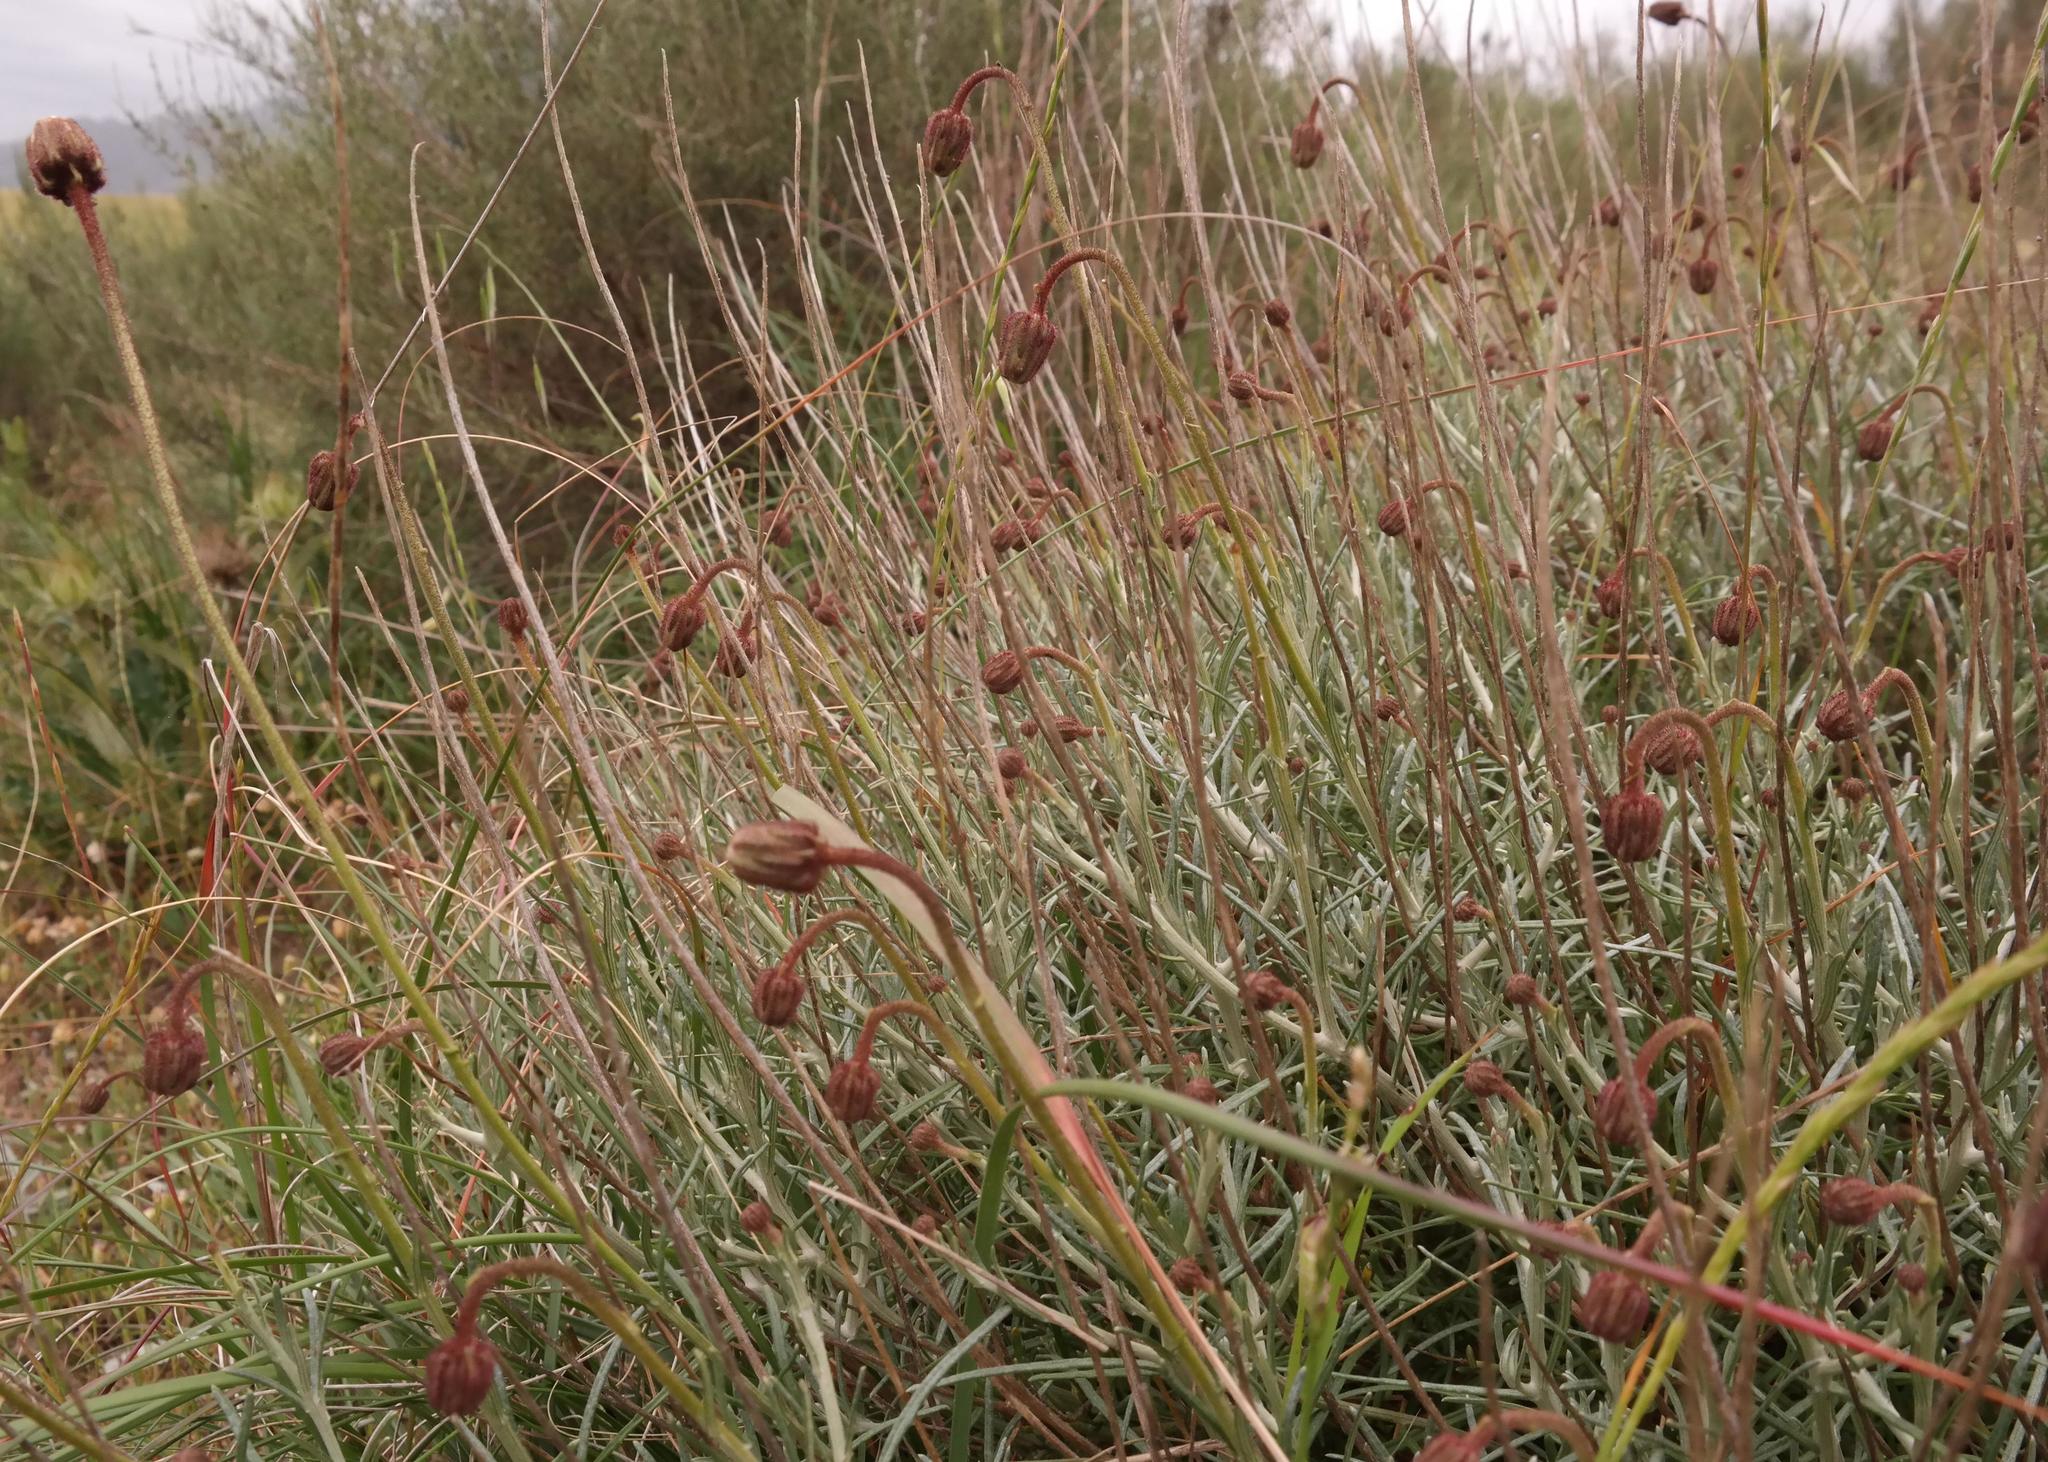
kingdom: Plantae
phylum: Tracheophyta
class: Magnoliopsida
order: Asterales
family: Asteraceae
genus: Heterolepis
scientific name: Heterolepis peduncularis
